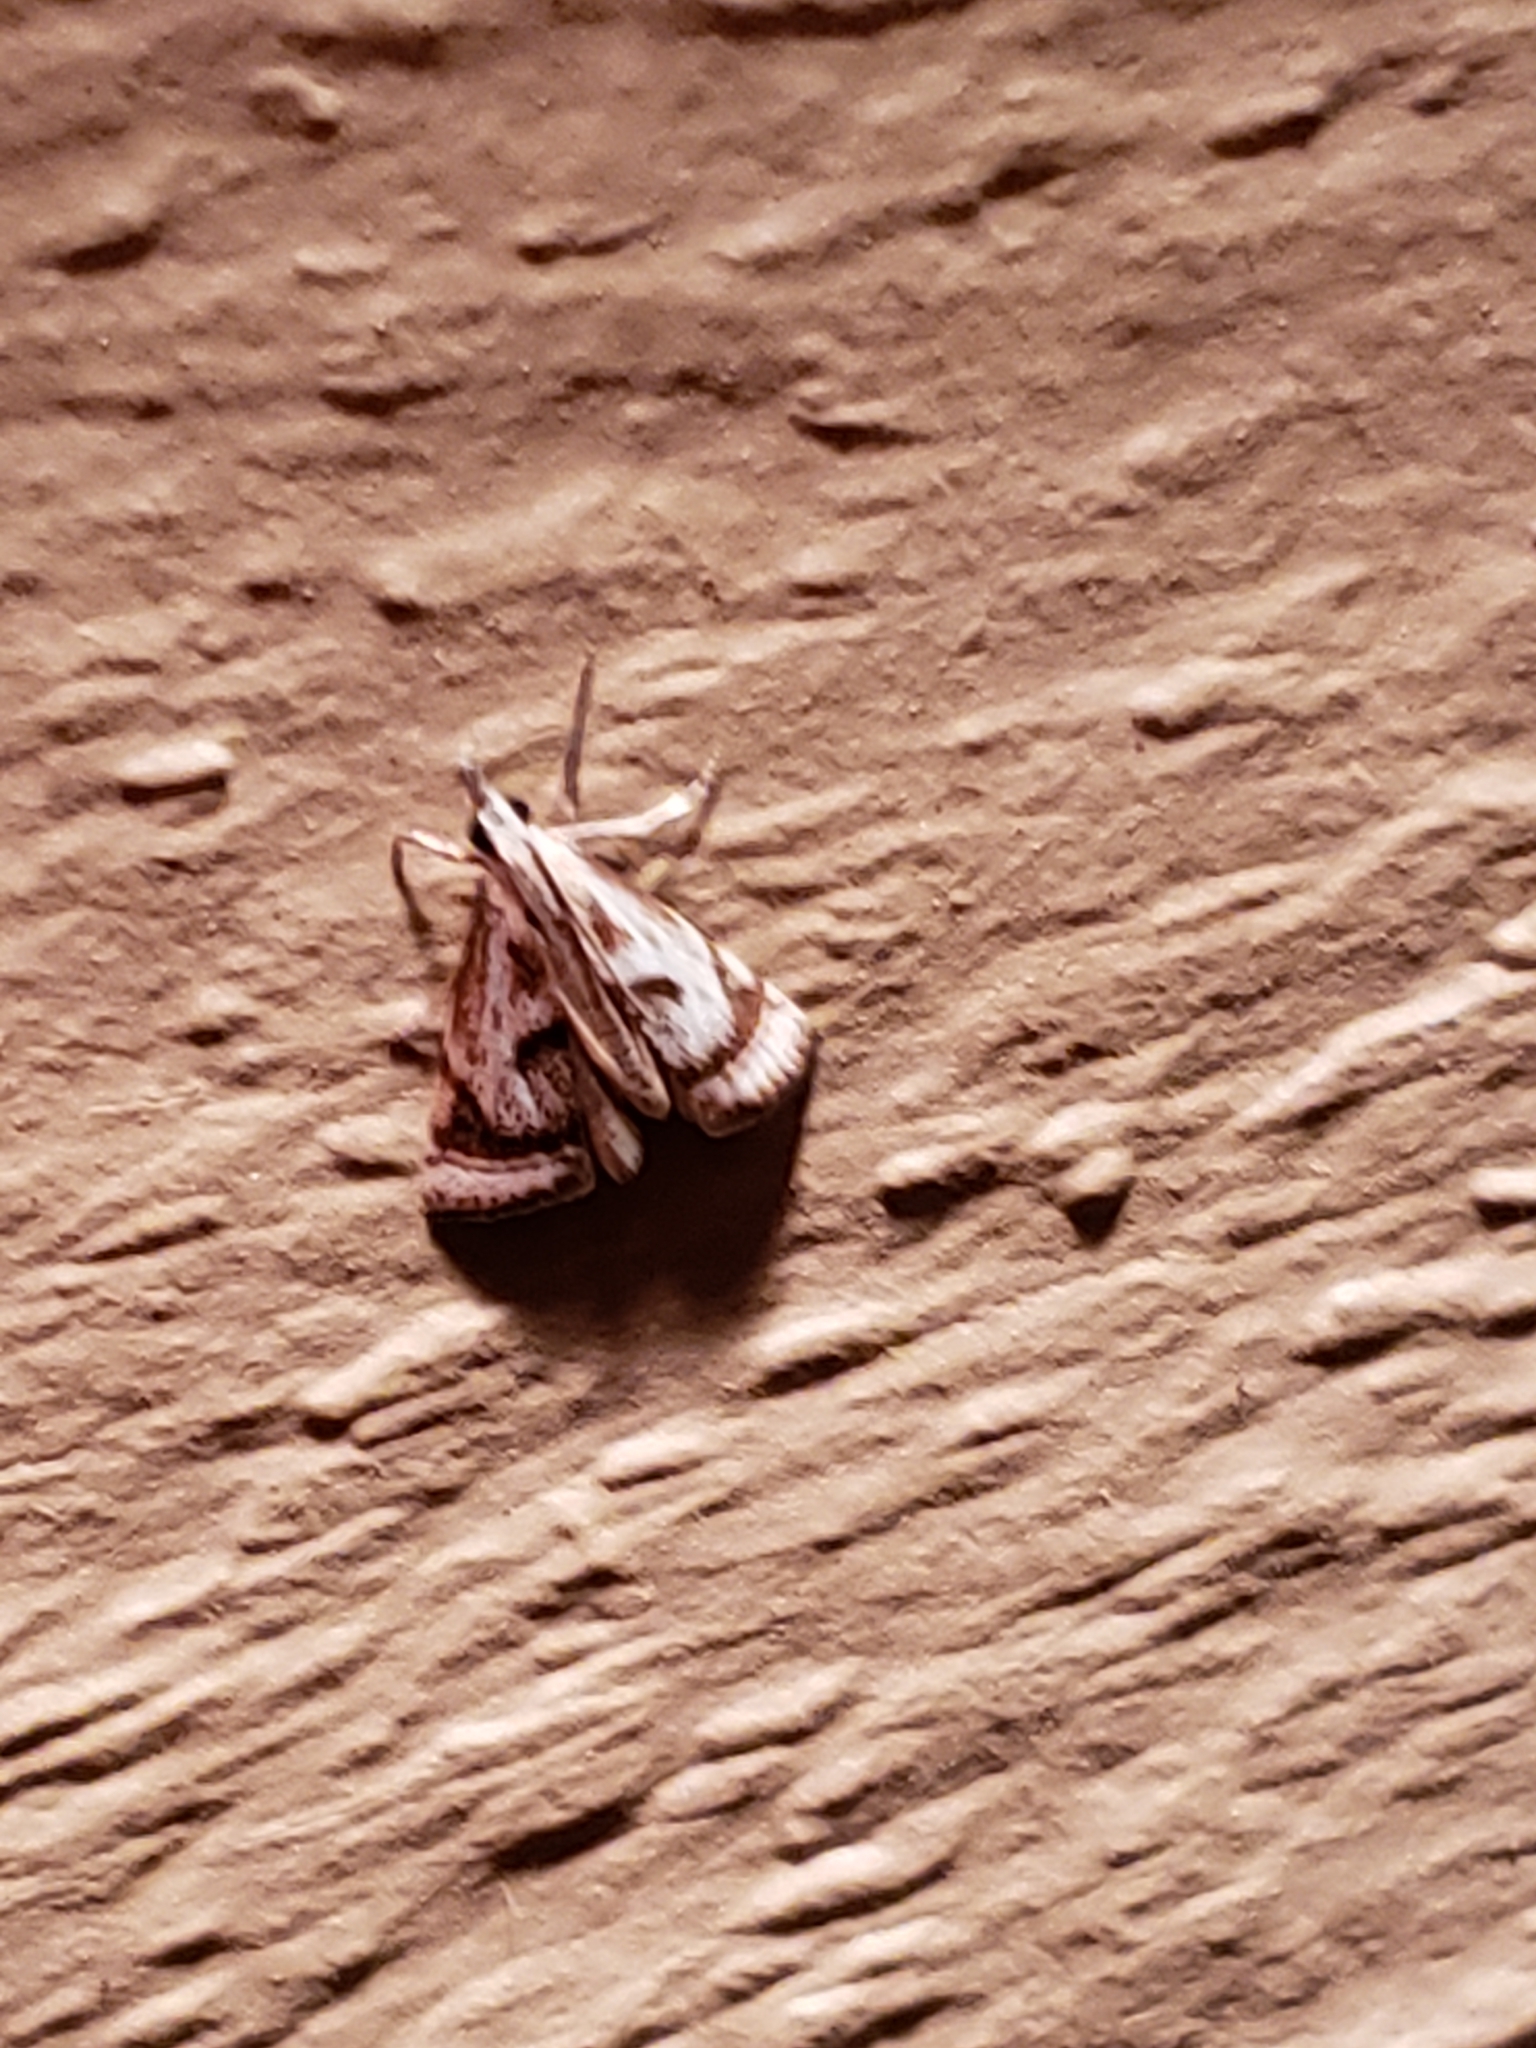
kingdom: Animalia
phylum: Arthropoda
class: Insecta
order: Lepidoptera
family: Crambidae
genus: Microcrambus
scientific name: Microcrambus elegans
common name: Elegant grass-veneer
